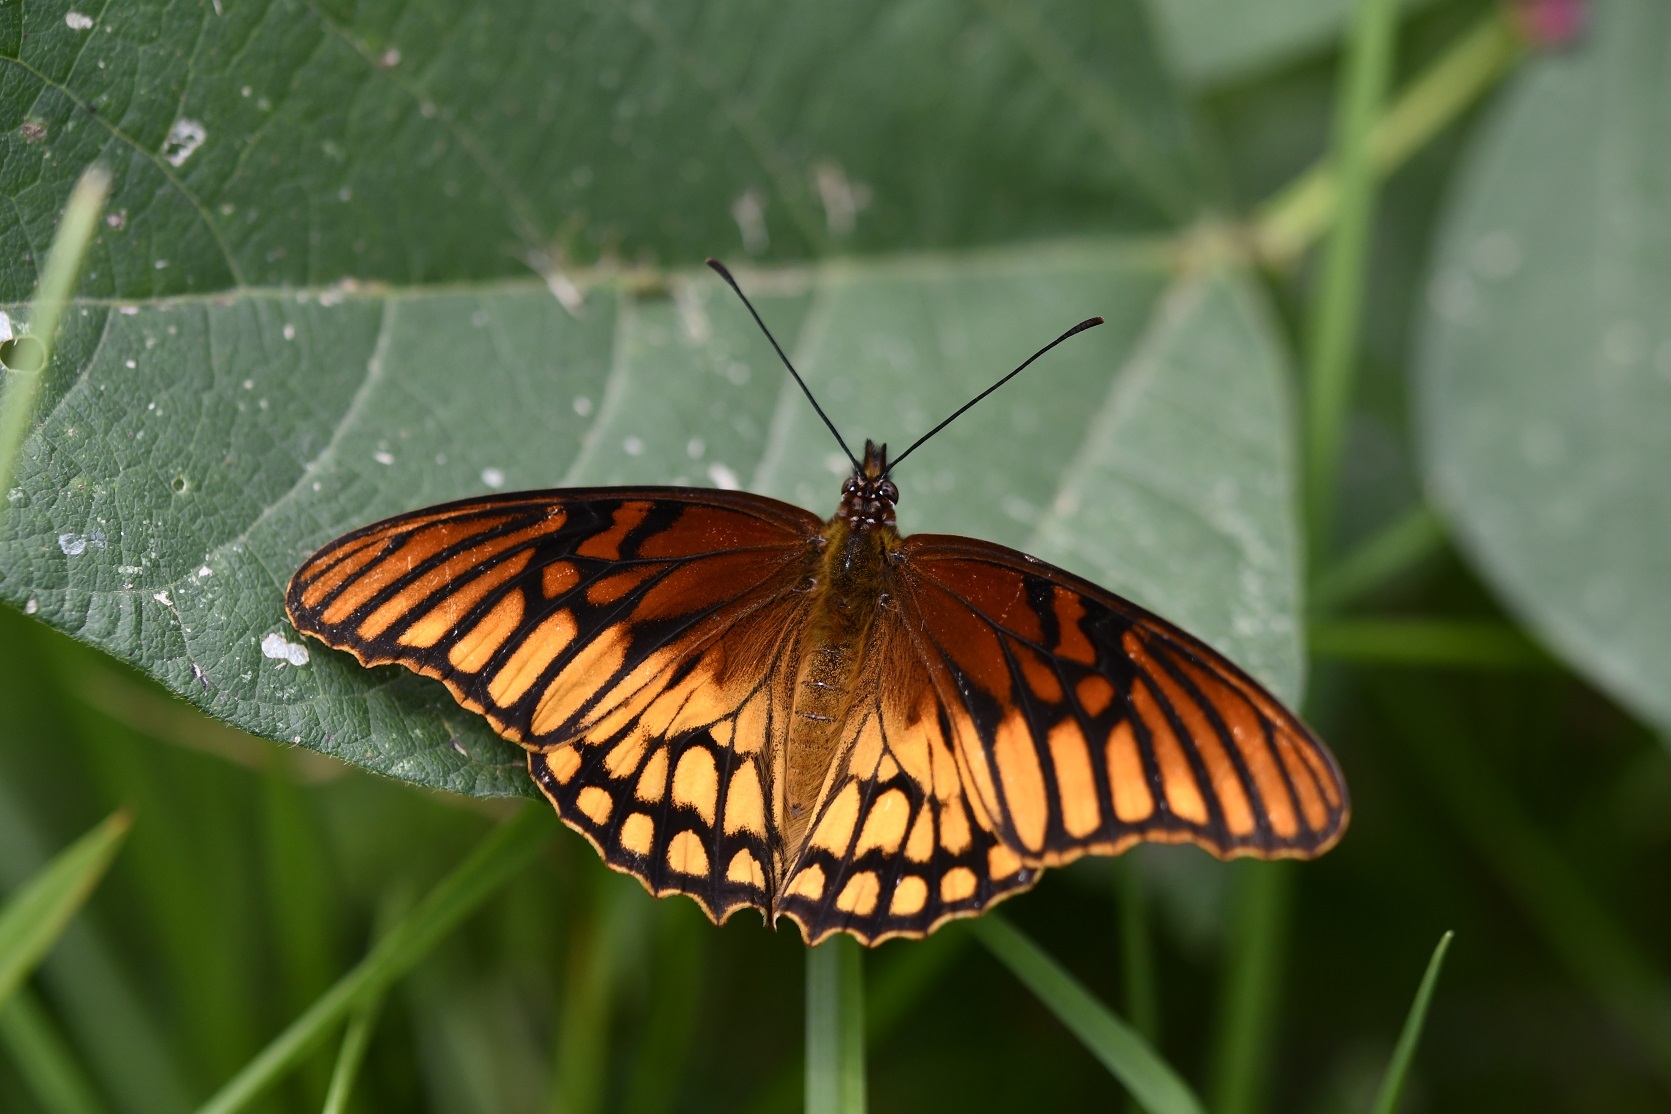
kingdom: Animalia
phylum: Arthropoda
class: Insecta
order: Lepidoptera
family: Nymphalidae
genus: Dione
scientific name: Dione moneta
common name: Mexican silverspot
